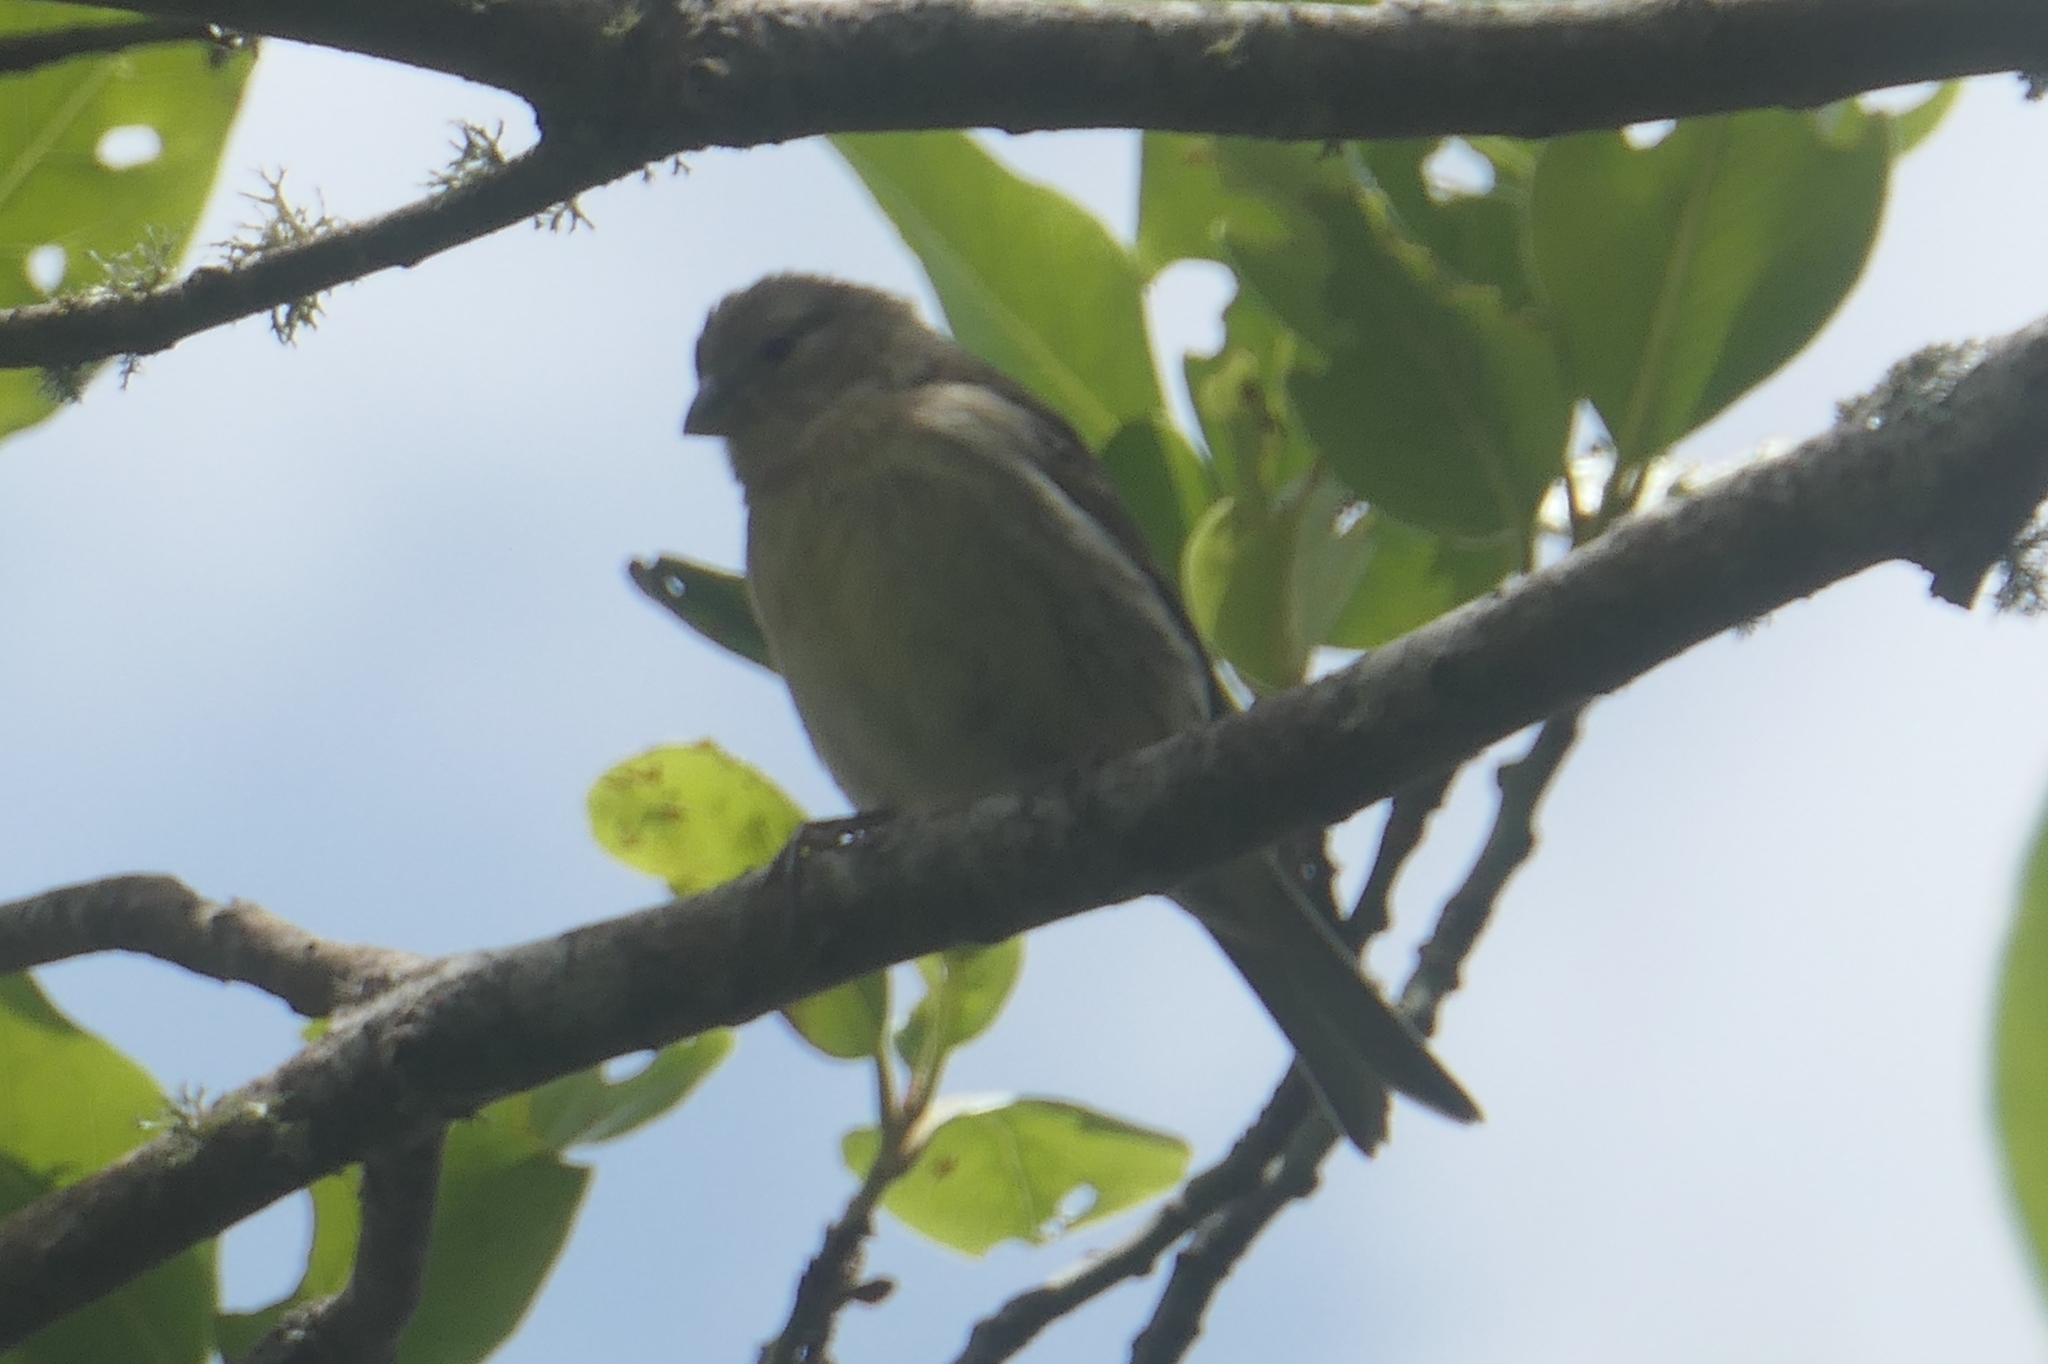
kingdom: Animalia
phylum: Chordata
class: Aves
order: Passeriformes
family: Fringillidae
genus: Serinus
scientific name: Serinus canaria
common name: Atlantic canary
